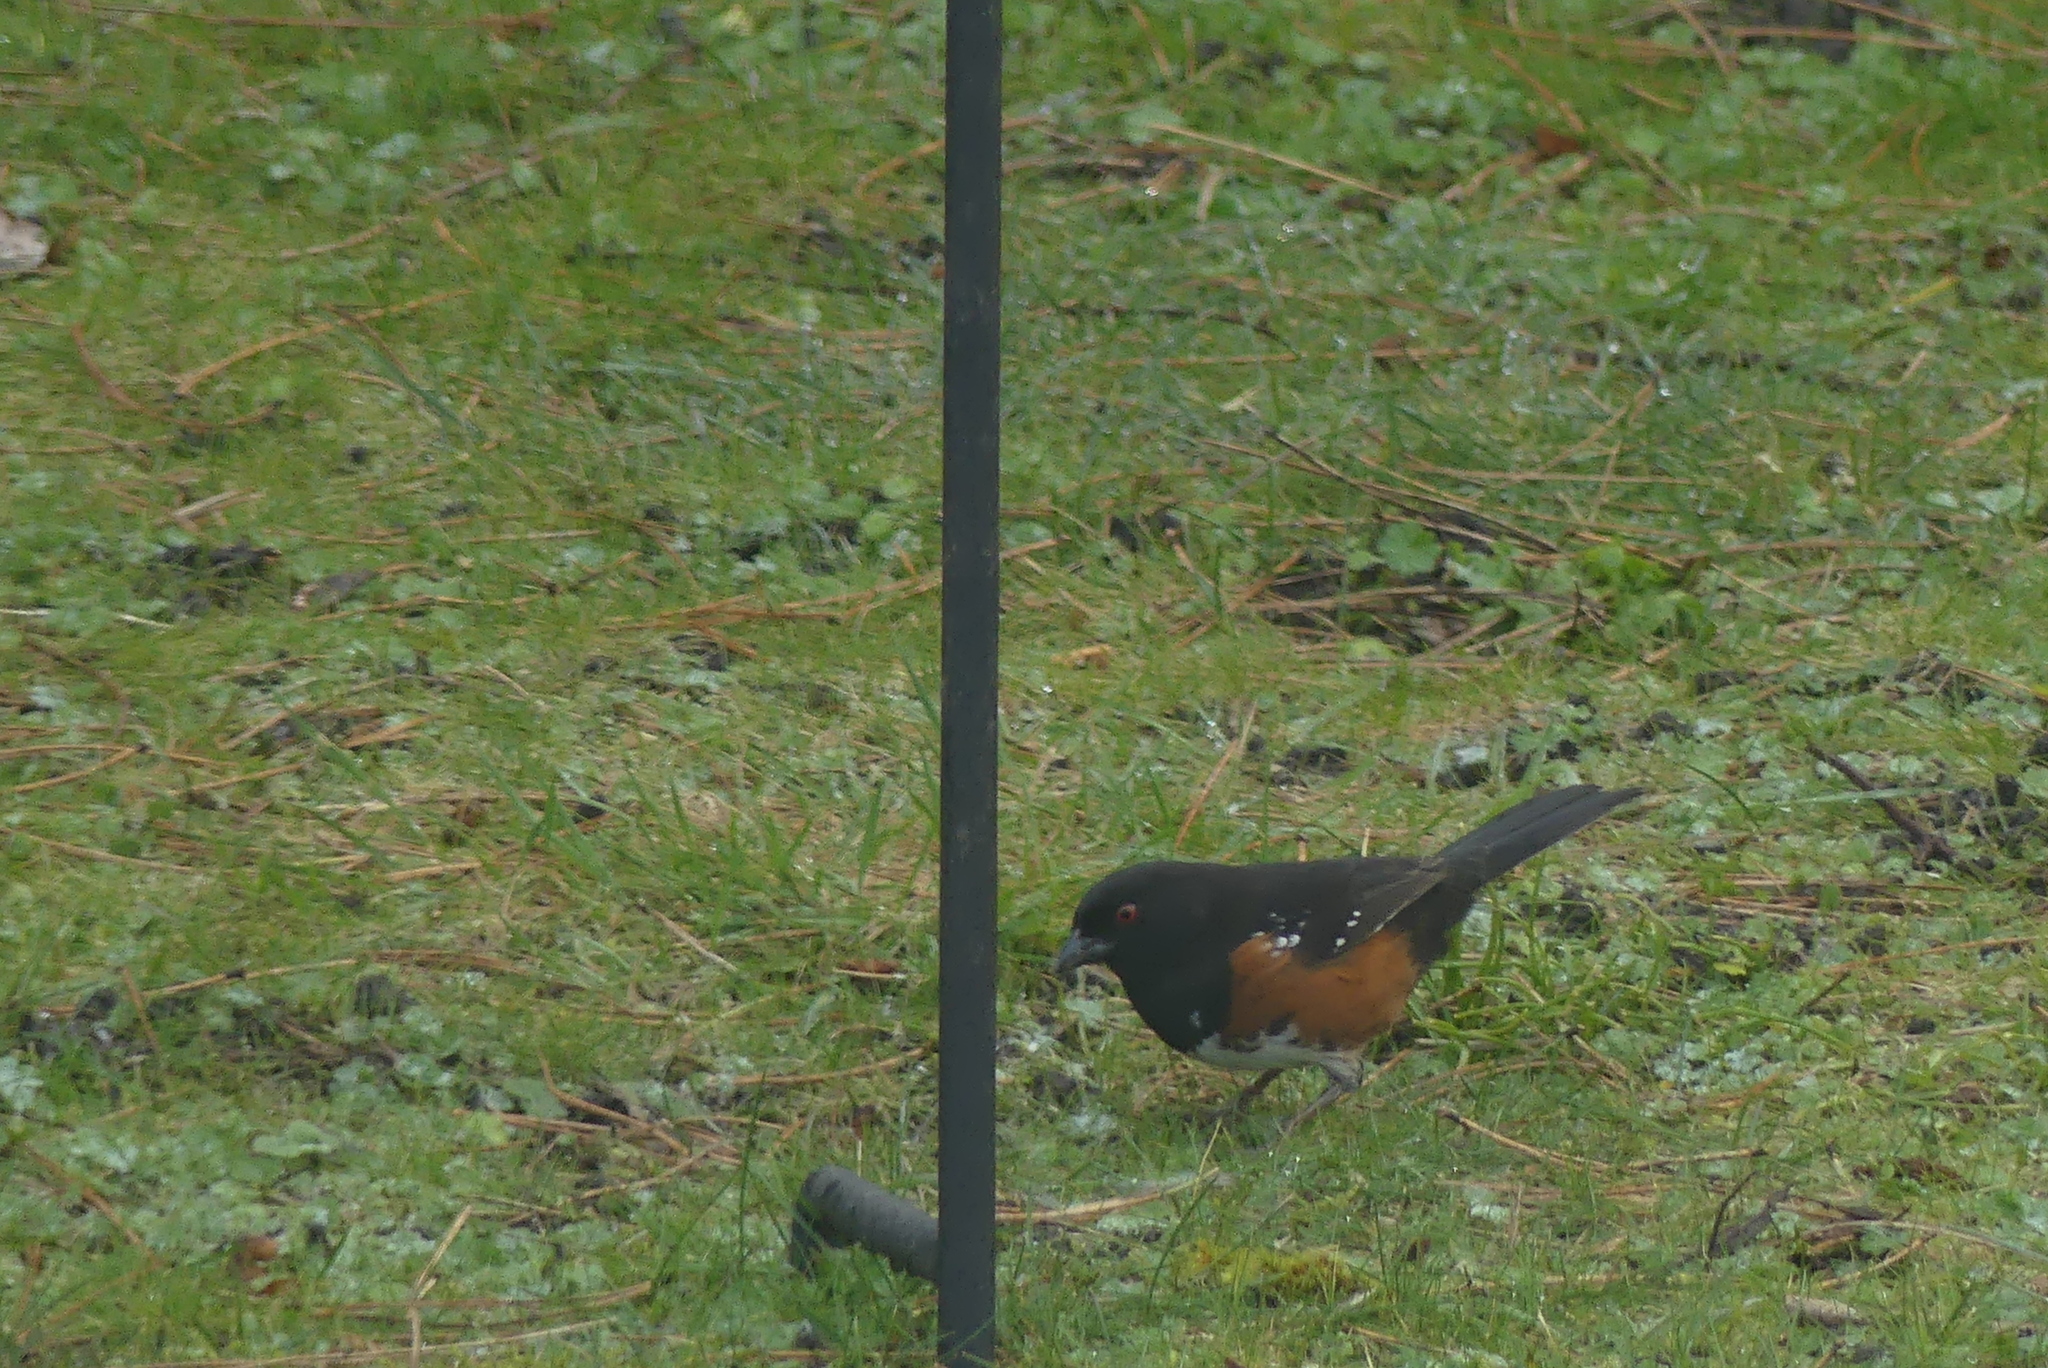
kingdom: Animalia
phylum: Chordata
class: Aves
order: Passeriformes
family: Passerellidae
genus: Pipilo
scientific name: Pipilo maculatus
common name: Spotted towhee
